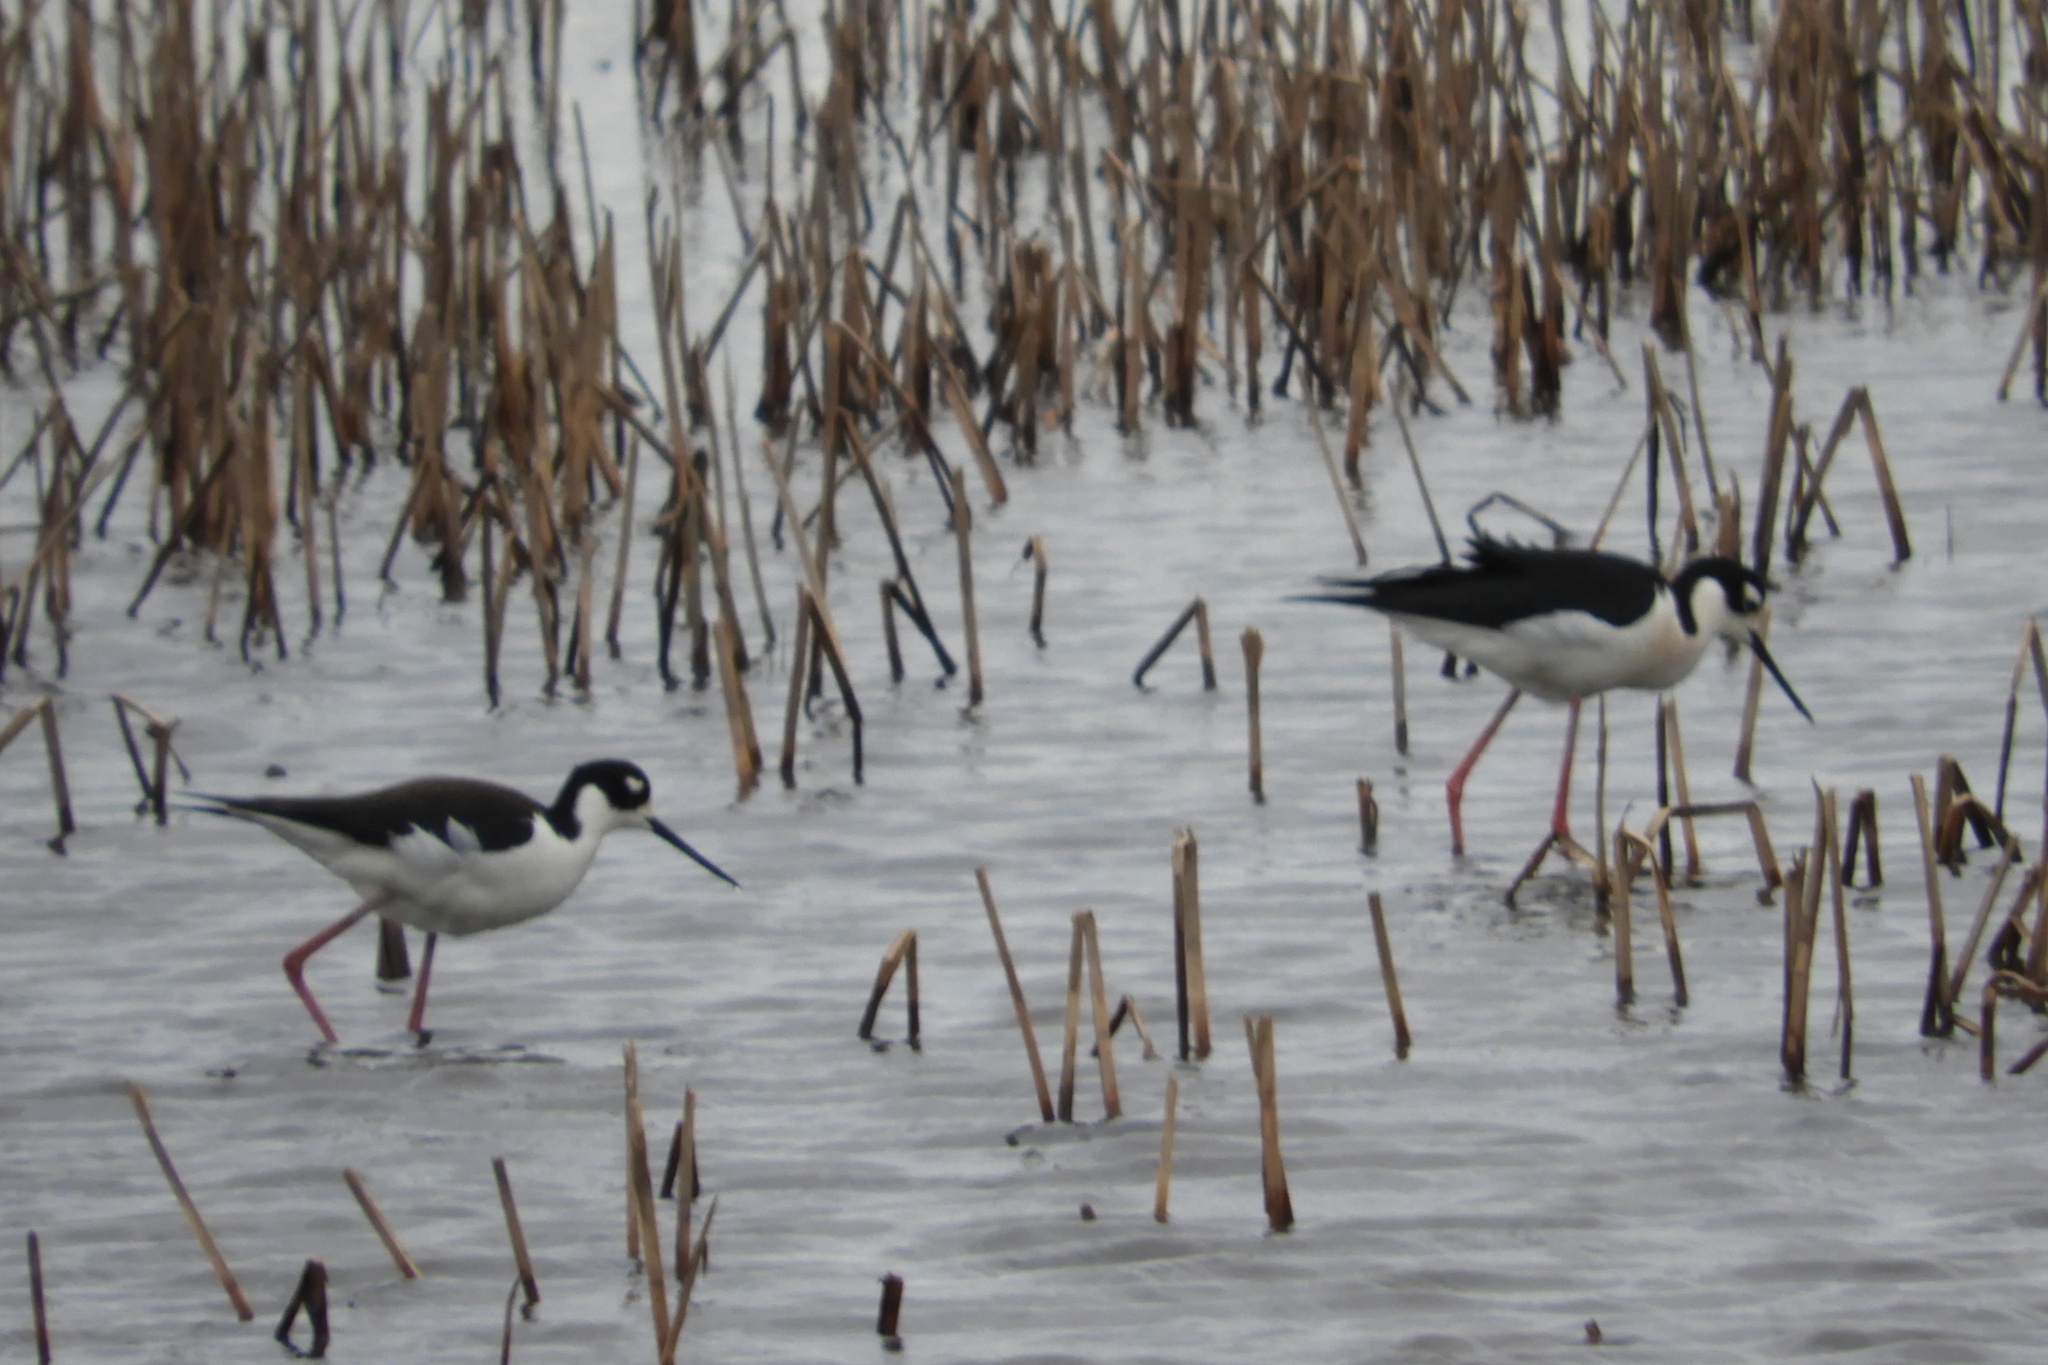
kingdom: Animalia
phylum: Chordata
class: Aves
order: Charadriiformes
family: Recurvirostridae
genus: Himantopus
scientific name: Himantopus mexicanus
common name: Black-necked stilt
